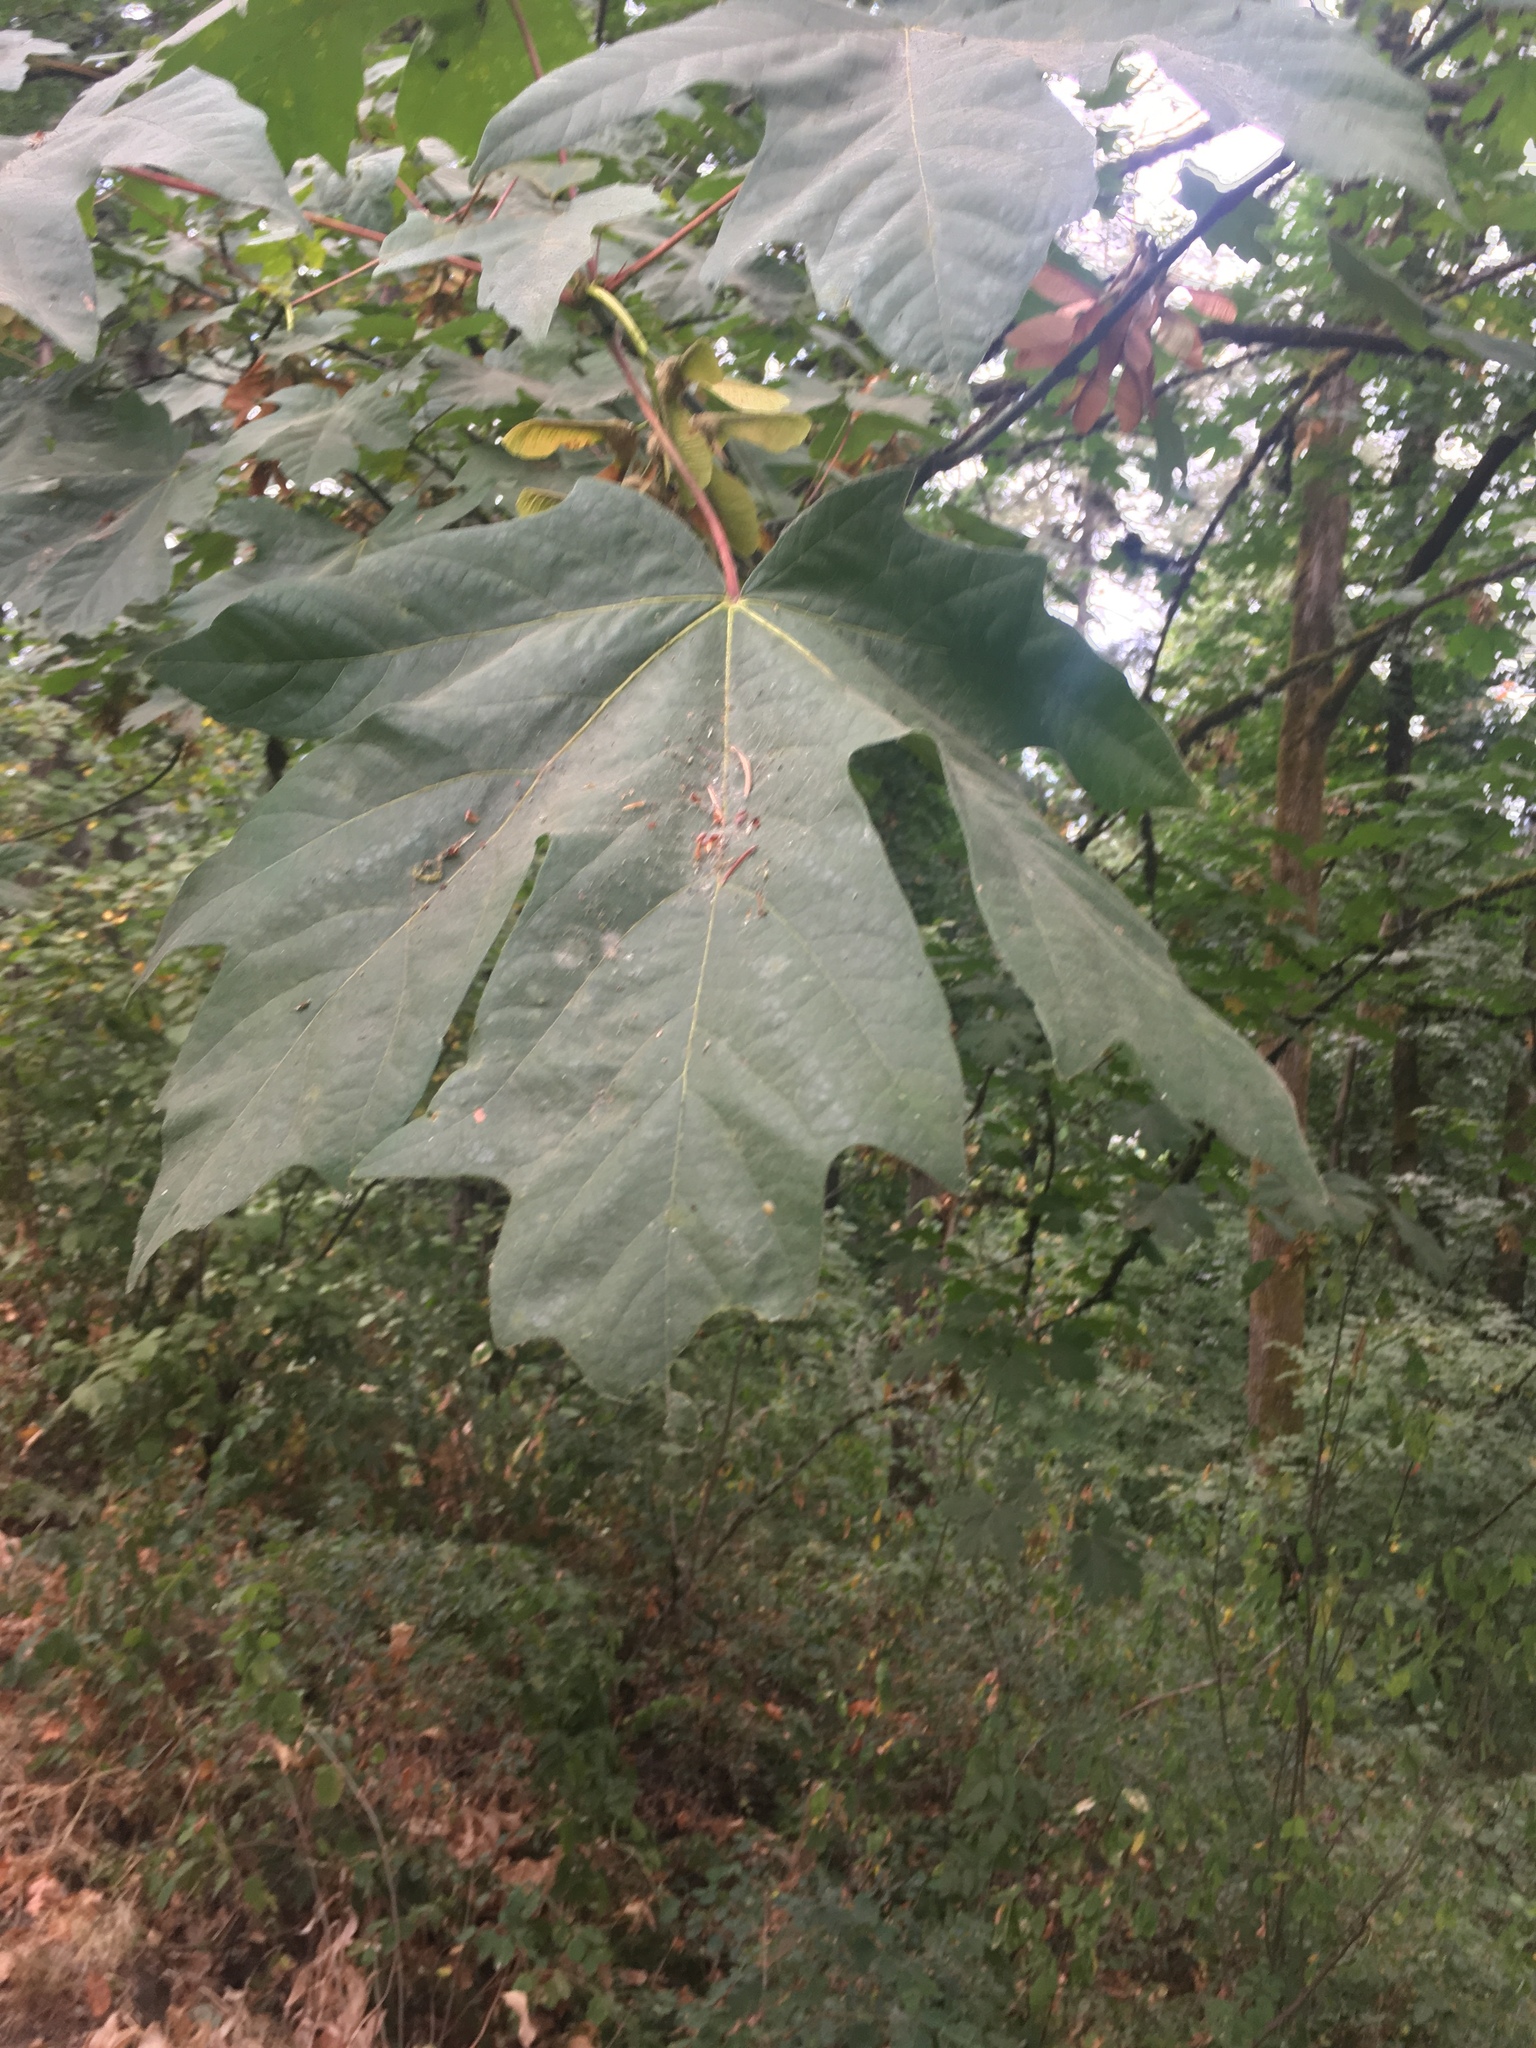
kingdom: Plantae
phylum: Tracheophyta
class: Magnoliopsida
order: Sapindales
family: Sapindaceae
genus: Acer
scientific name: Acer macrophyllum
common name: Oregon maple
